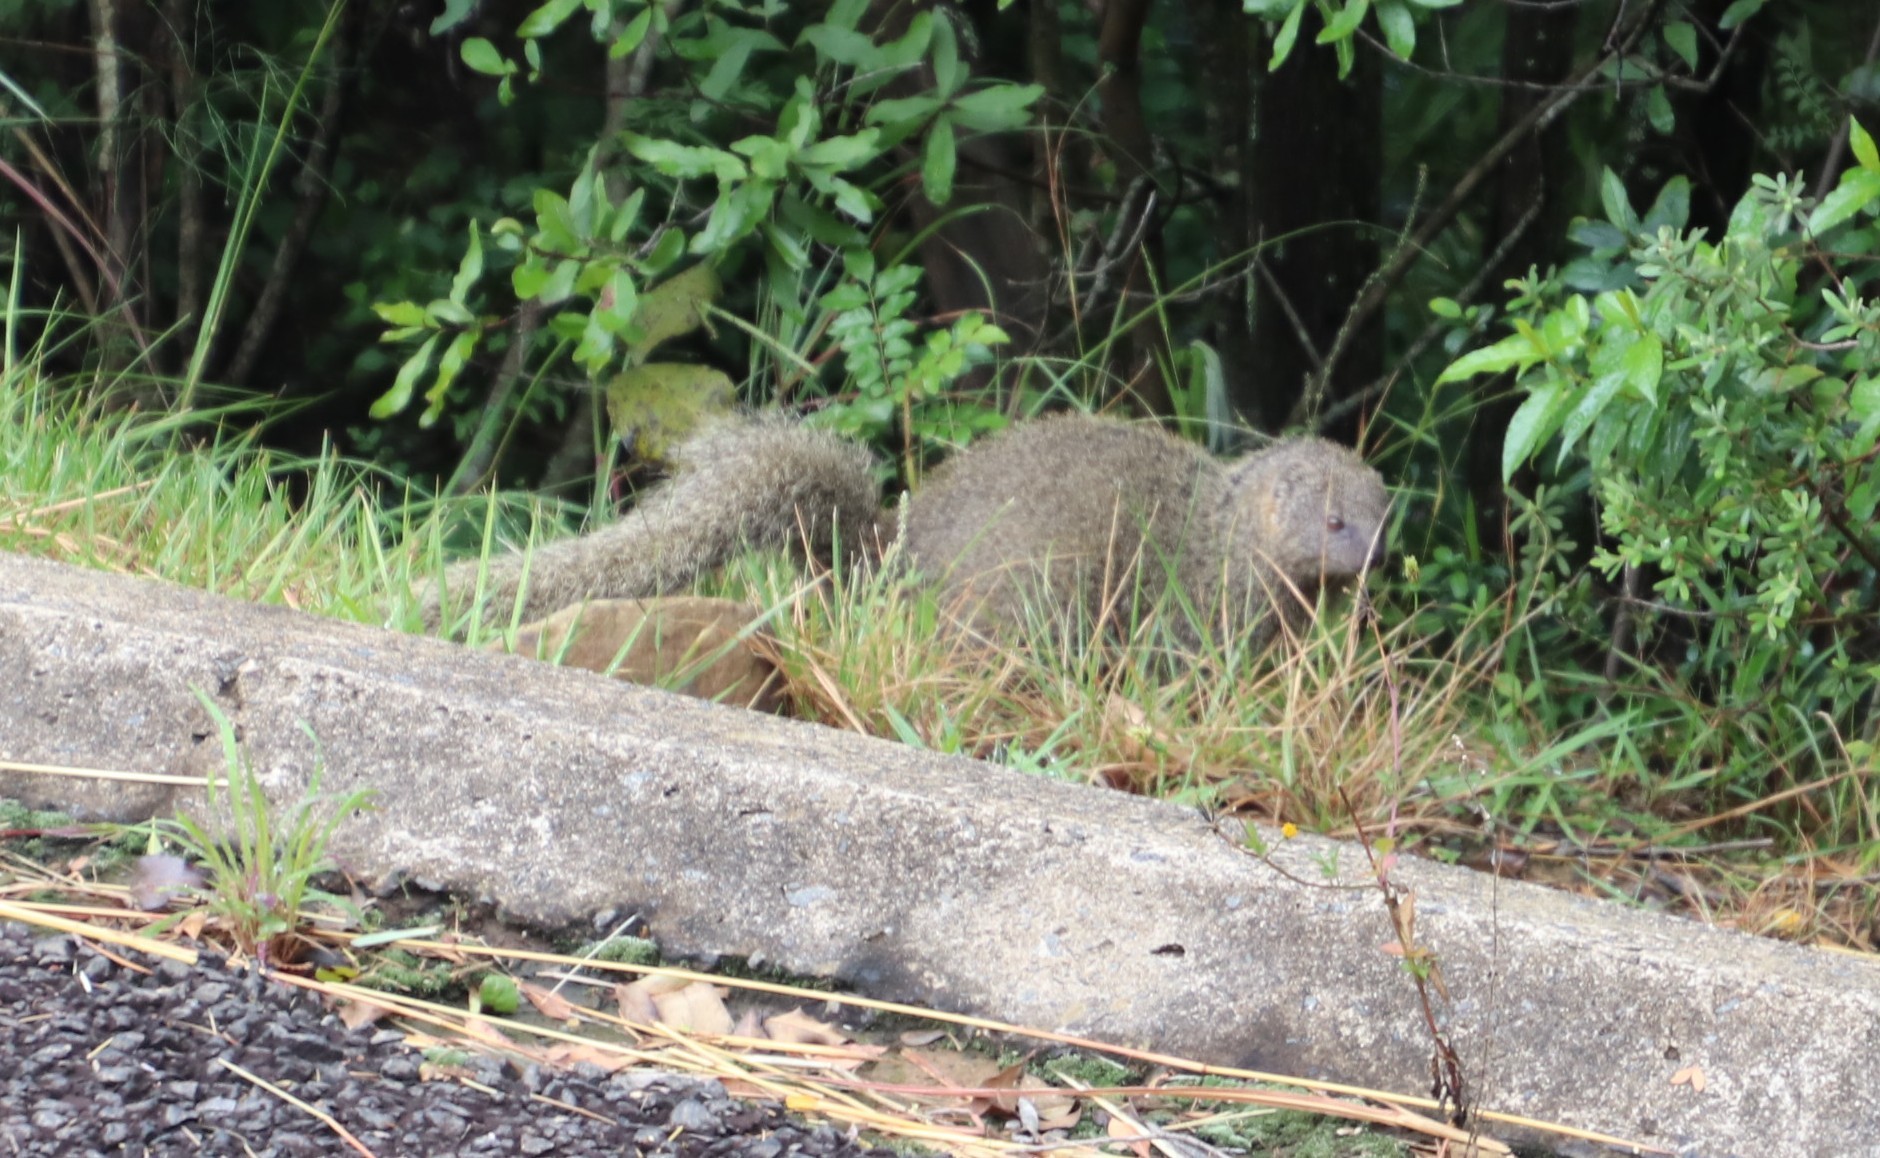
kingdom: Animalia
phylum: Chordata
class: Mammalia
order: Carnivora
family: Herpestidae
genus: Galerella
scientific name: Galerella pulverulenta
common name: Cape gray mongoose
